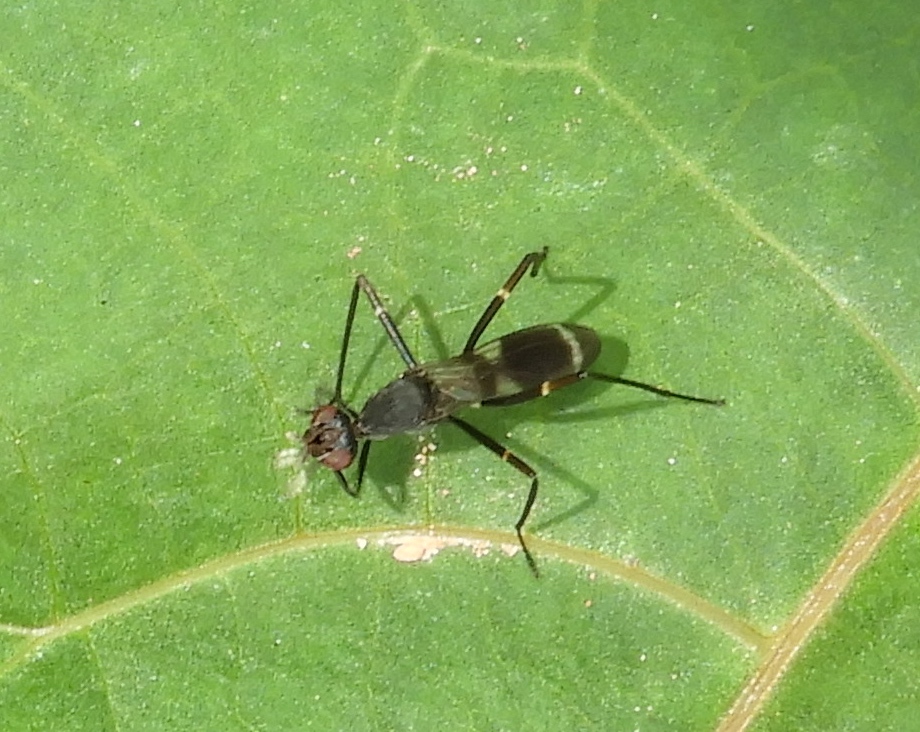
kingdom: Animalia
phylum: Arthropoda
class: Insecta
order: Diptera
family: Micropezidae
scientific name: Micropezidae
